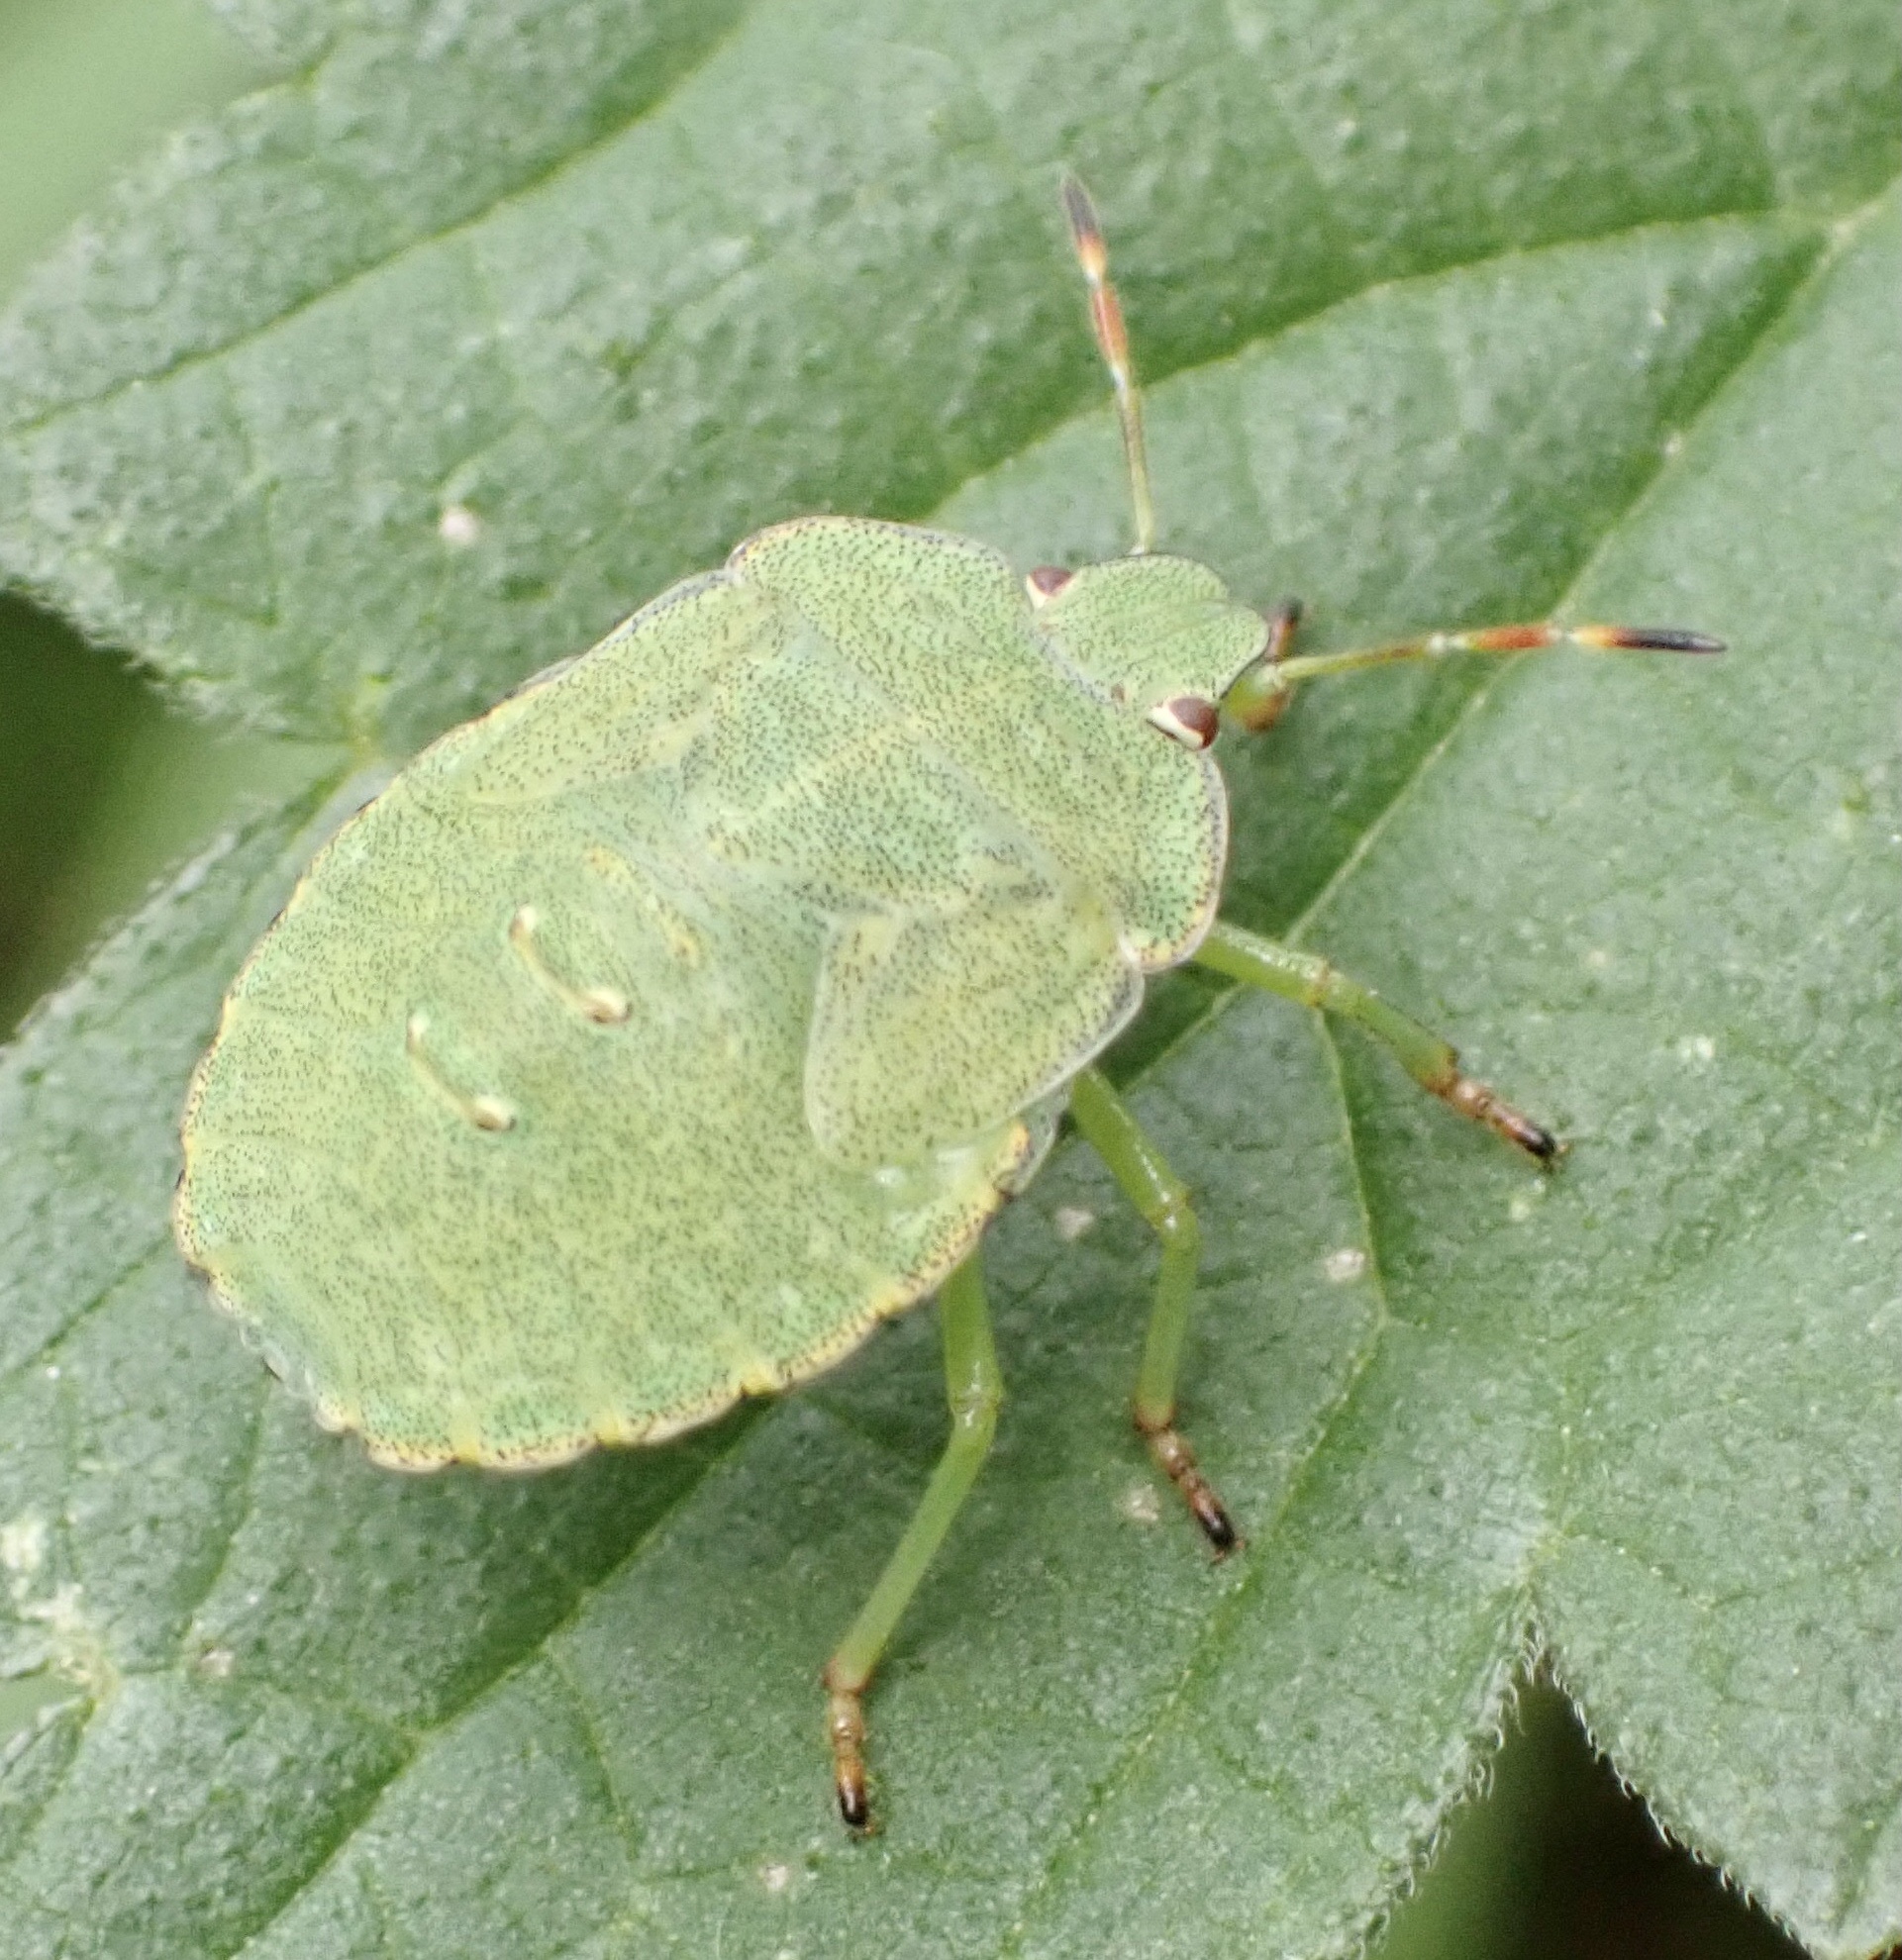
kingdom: Animalia
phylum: Arthropoda
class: Insecta
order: Hemiptera
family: Pentatomidae
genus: Palomena
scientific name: Palomena prasina
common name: Green shieldbug
